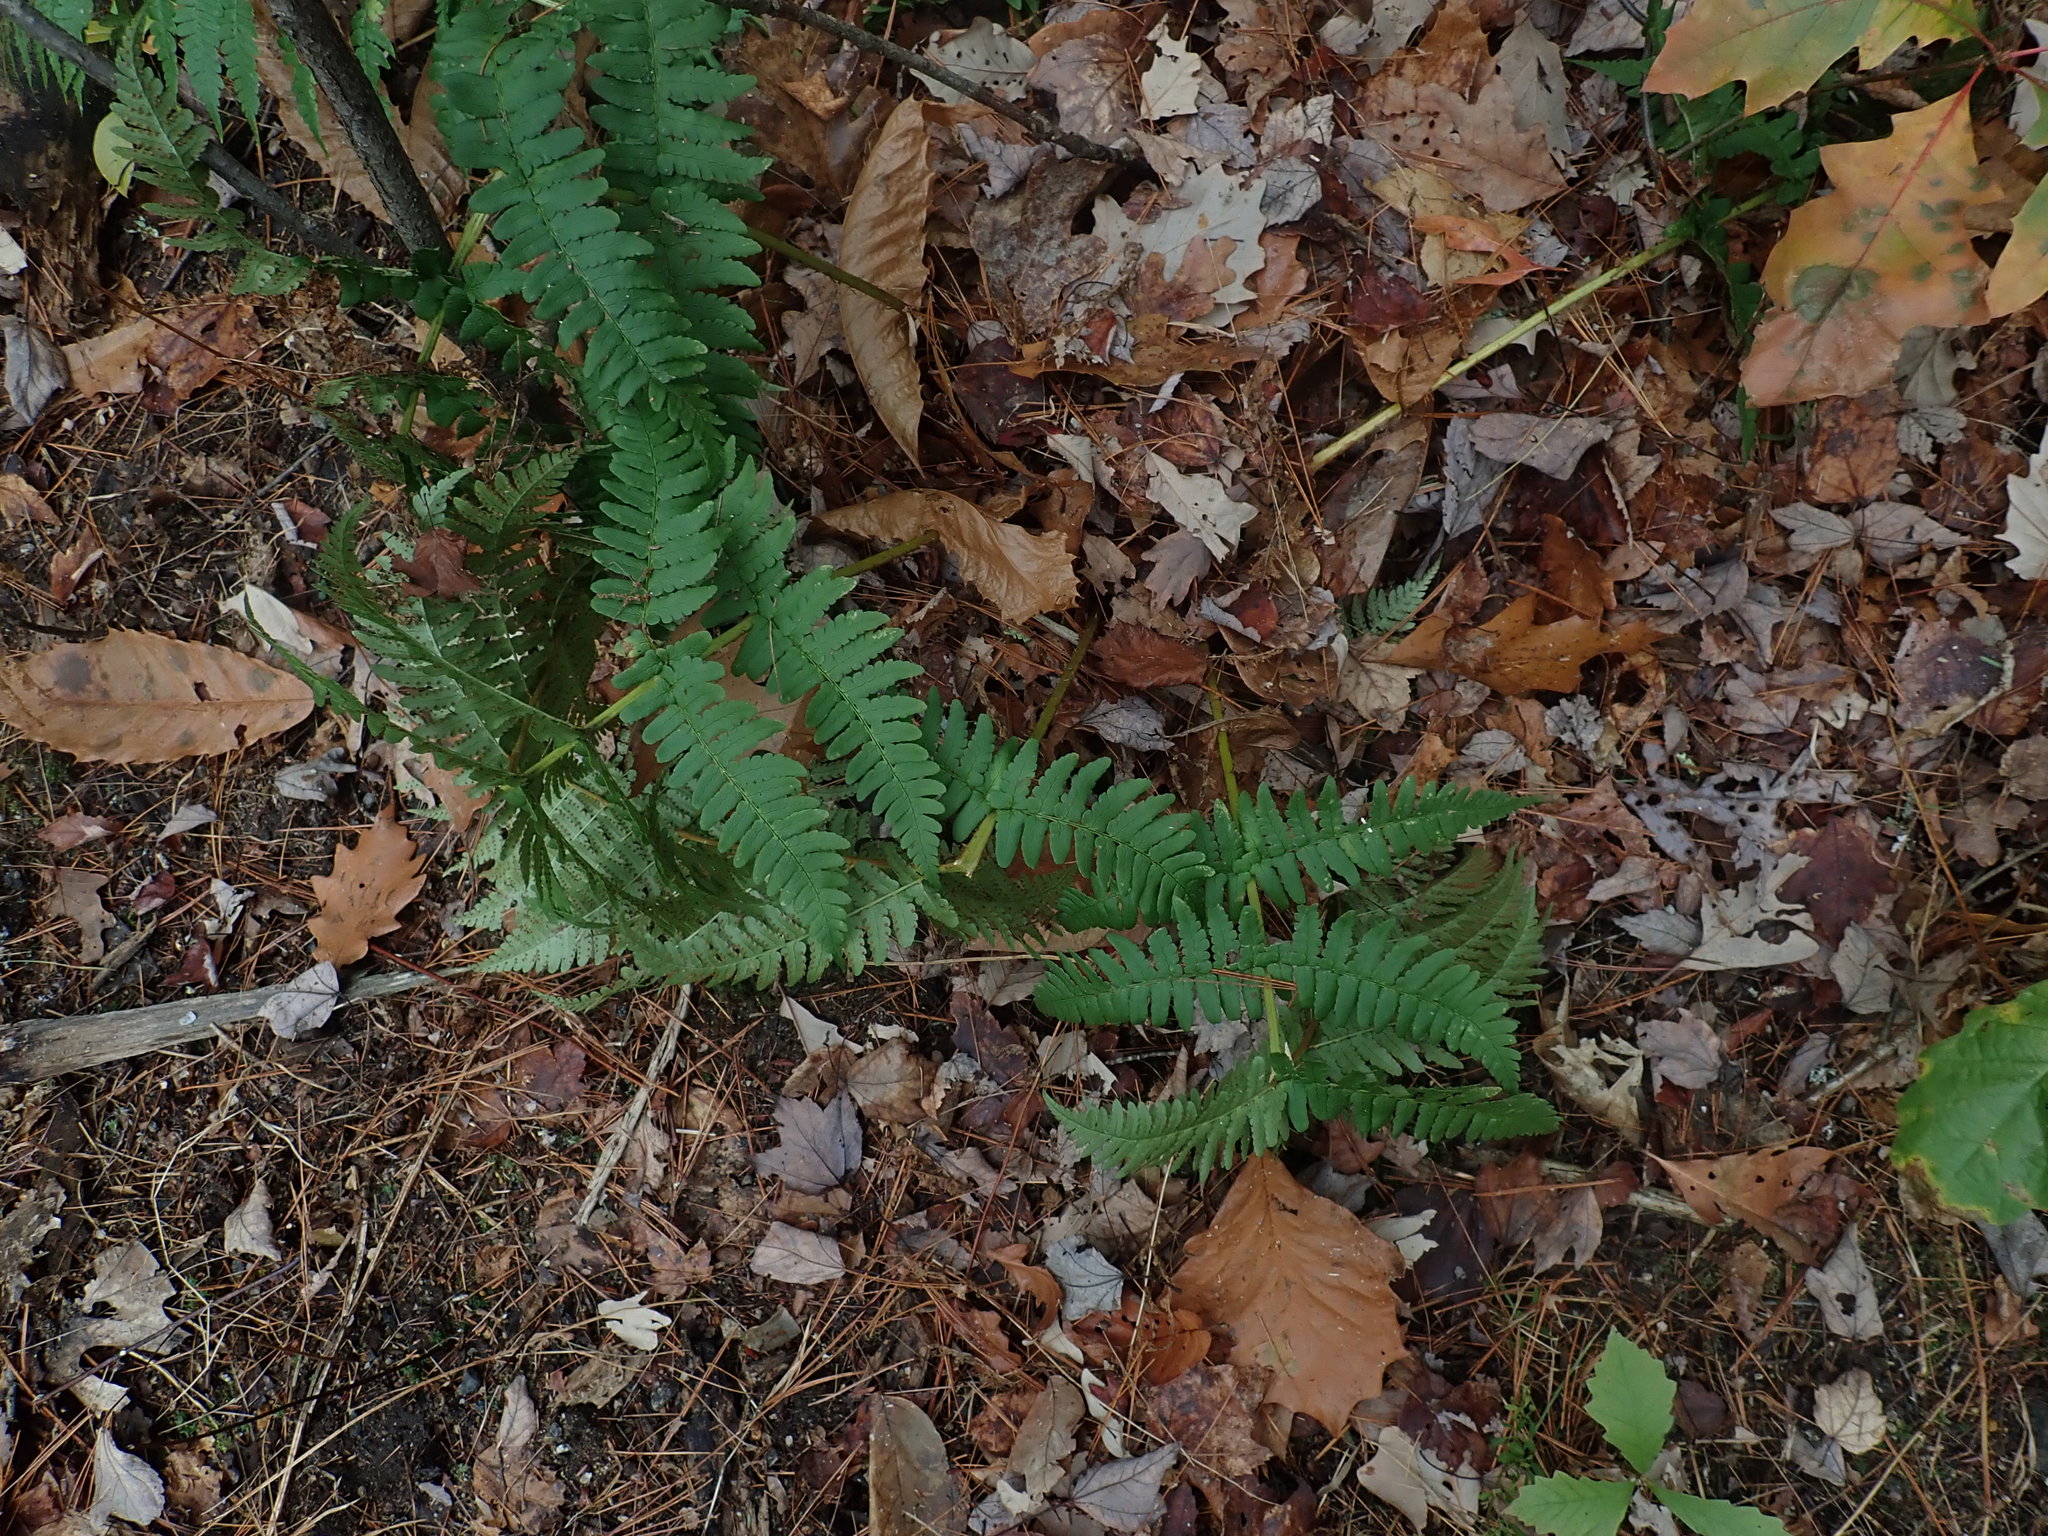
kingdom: Plantae
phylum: Tracheophyta
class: Polypodiopsida
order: Polypodiales
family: Dryopteridaceae
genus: Dryopteris
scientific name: Dryopteris marginalis
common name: Marginal wood fern
